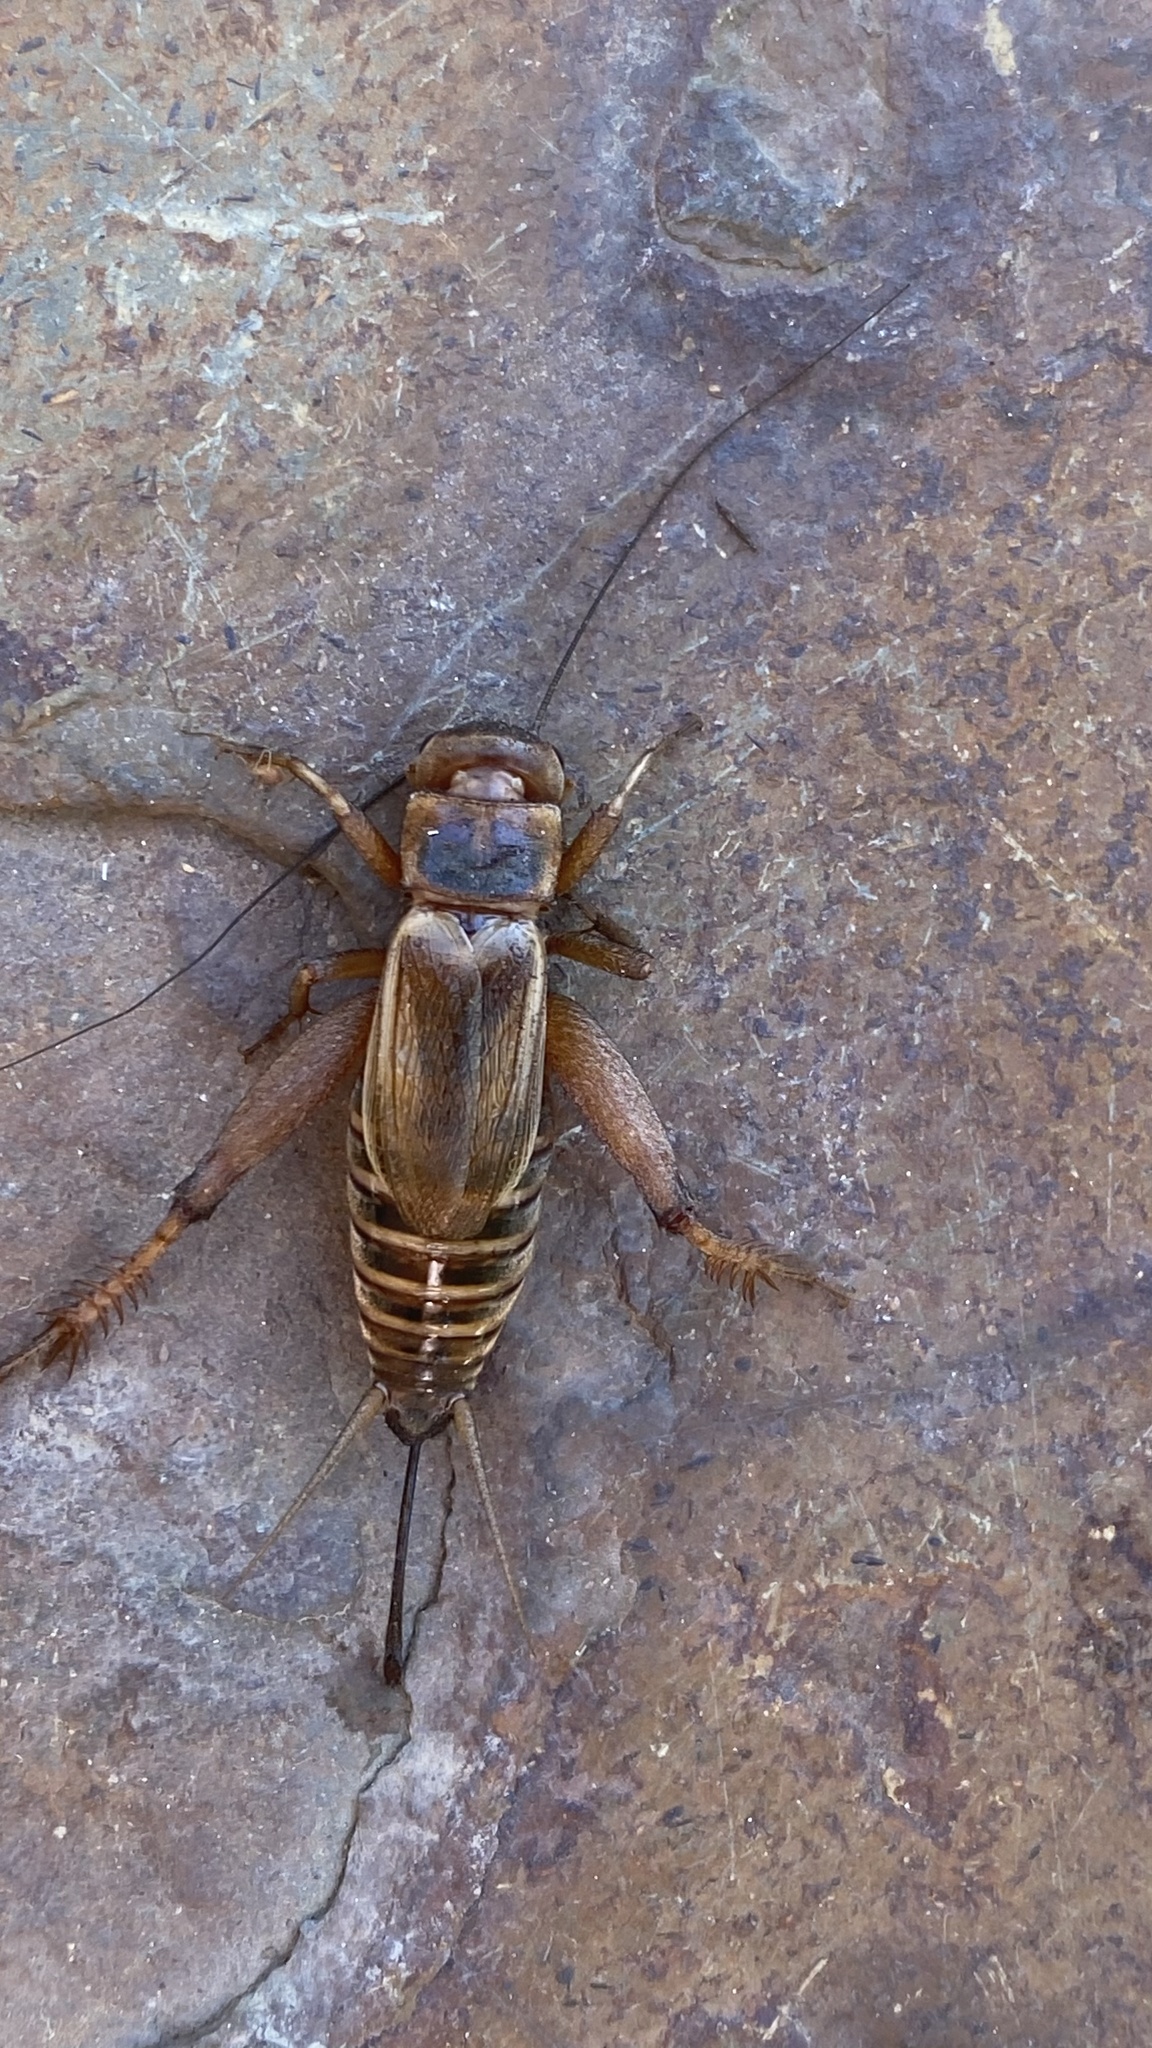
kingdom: Animalia
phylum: Arthropoda
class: Insecta
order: Orthoptera
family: Gryllidae
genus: Acheta
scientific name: Acheta domesticus
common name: House cricket
